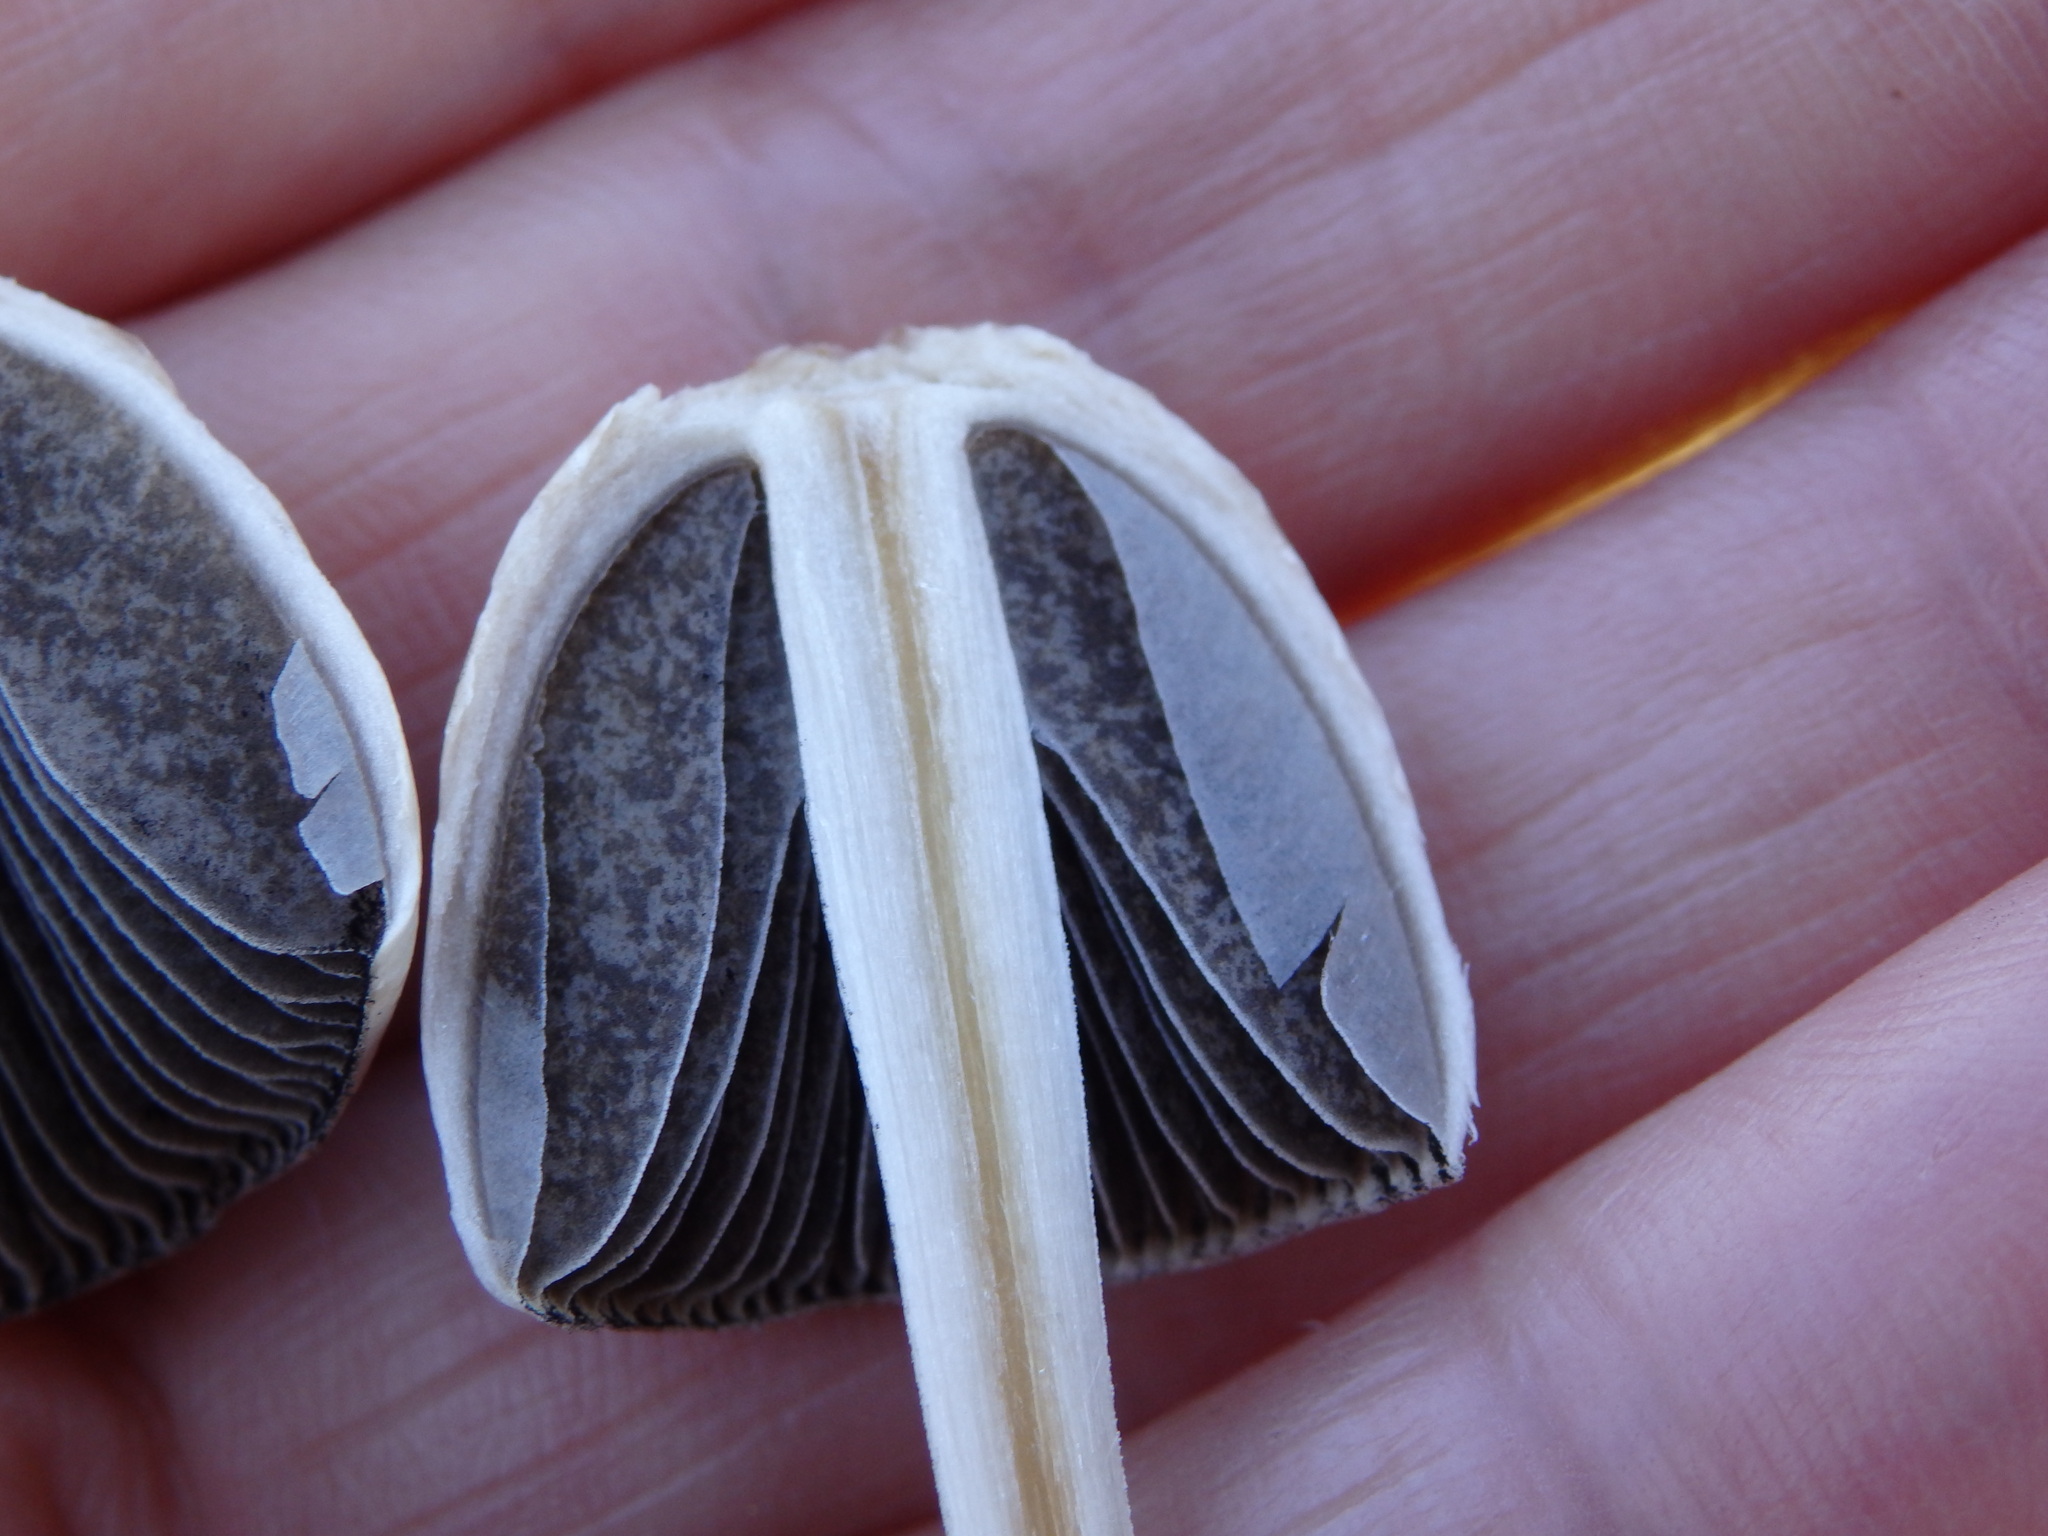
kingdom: Fungi
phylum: Basidiomycota
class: Agaricomycetes
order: Agaricales
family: Bolbitiaceae
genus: Panaeolus
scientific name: Panaeolus semiovatus
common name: Shiny mottlegill
